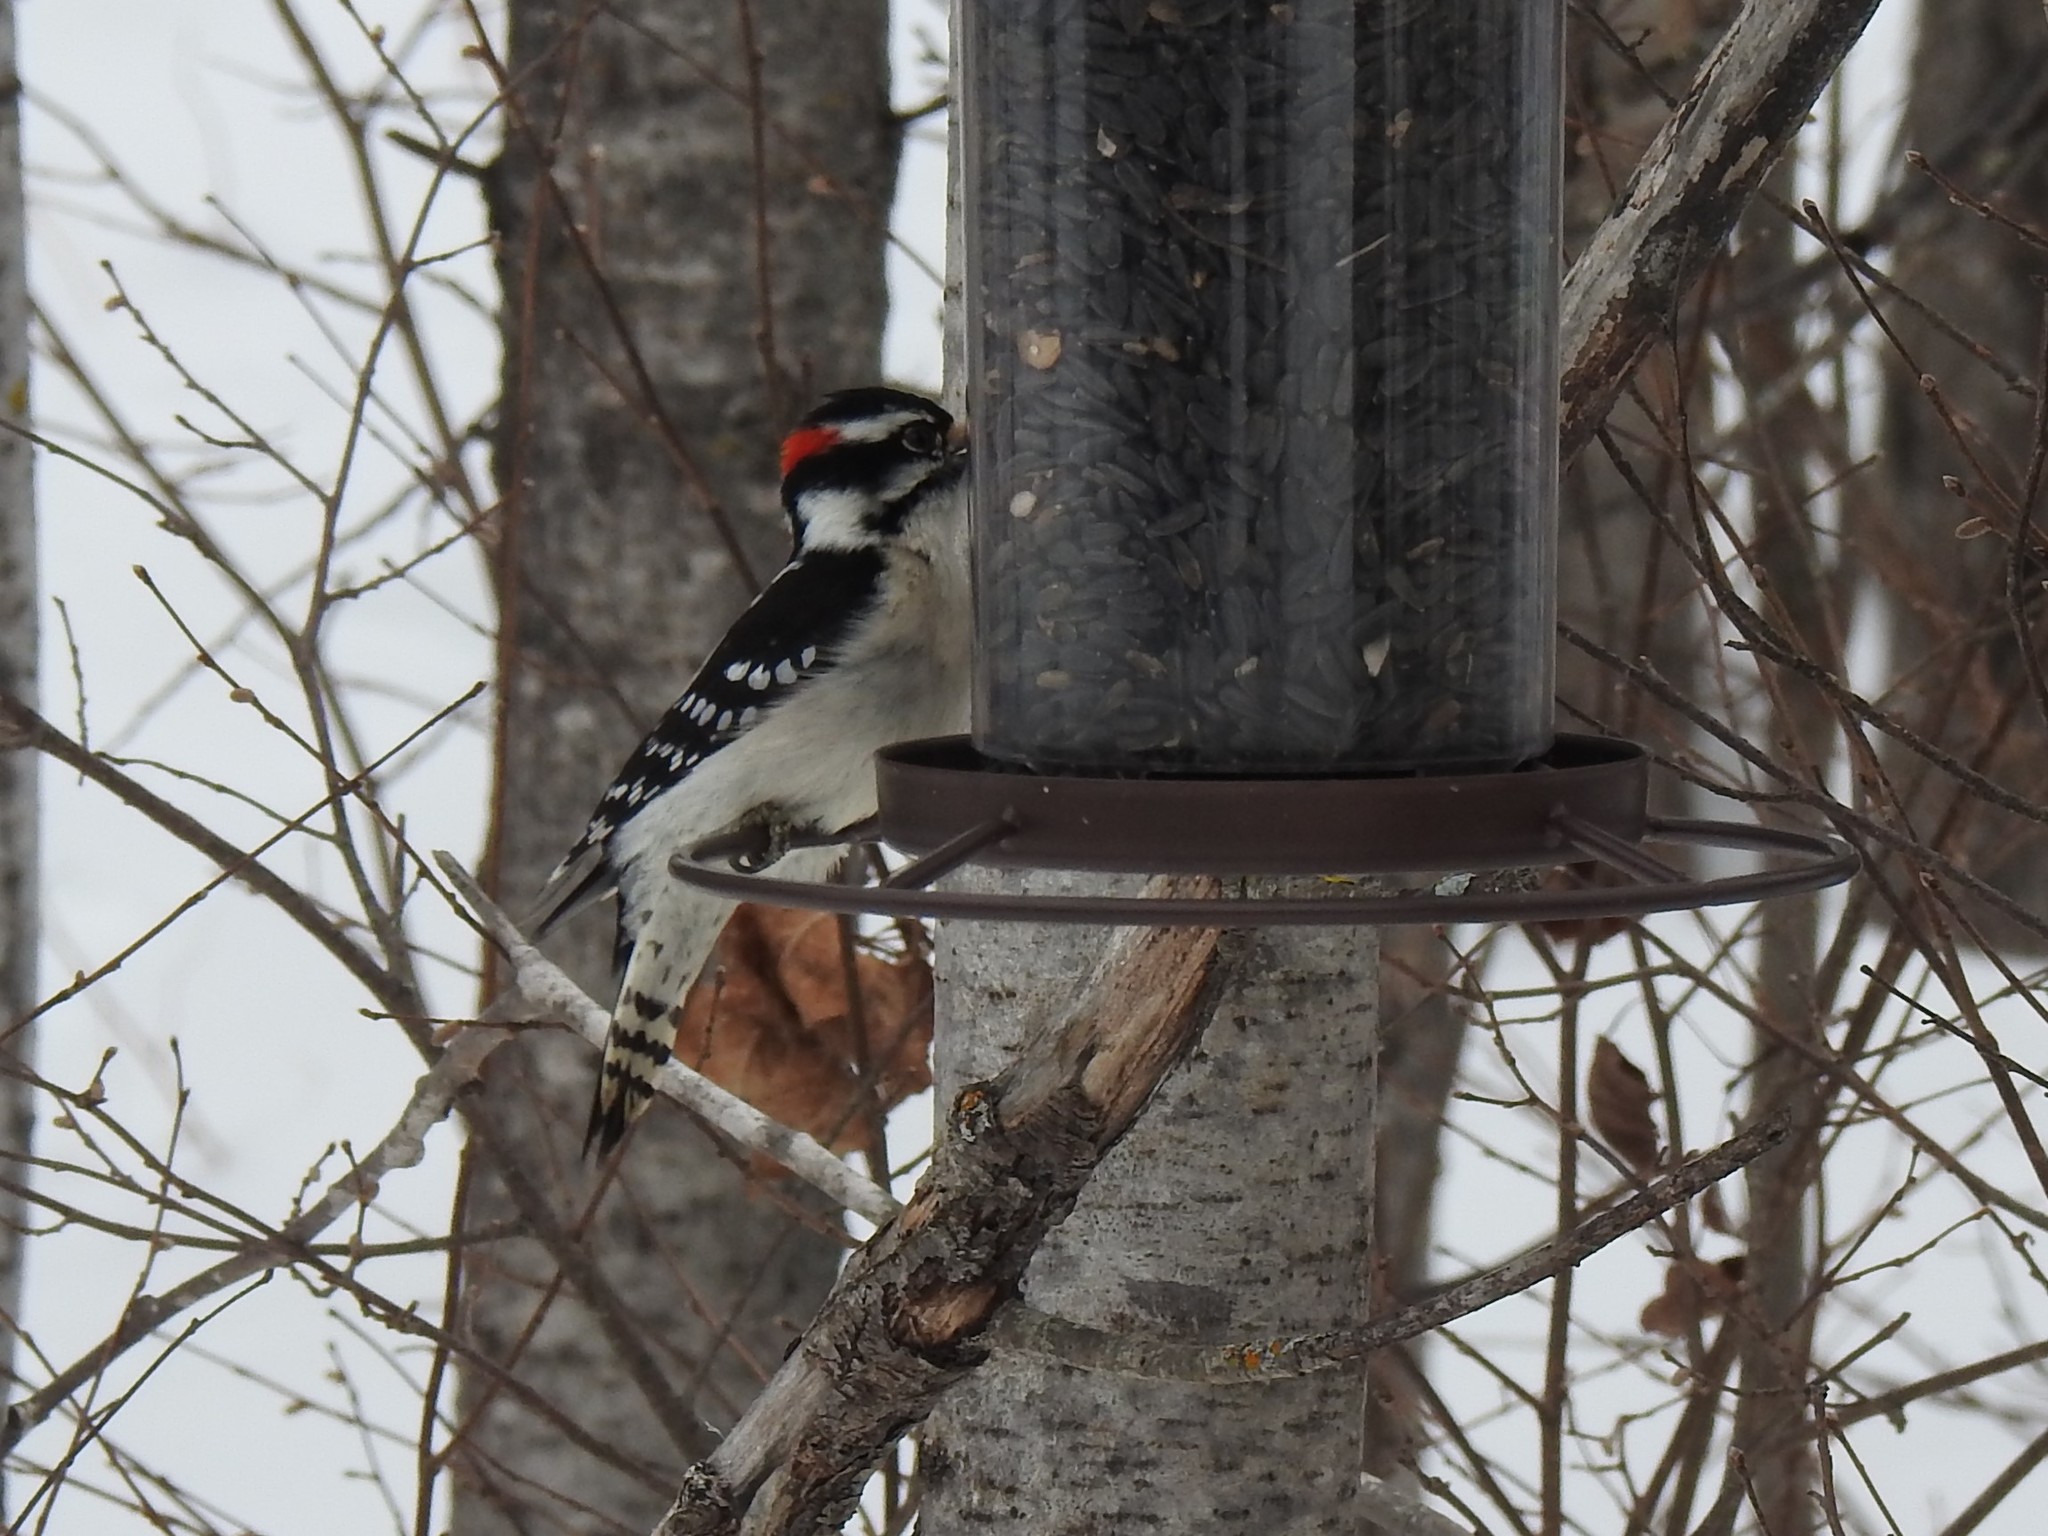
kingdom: Animalia
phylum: Chordata
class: Aves
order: Piciformes
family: Picidae
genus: Dryobates
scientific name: Dryobates pubescens
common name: Downy woodpecker
